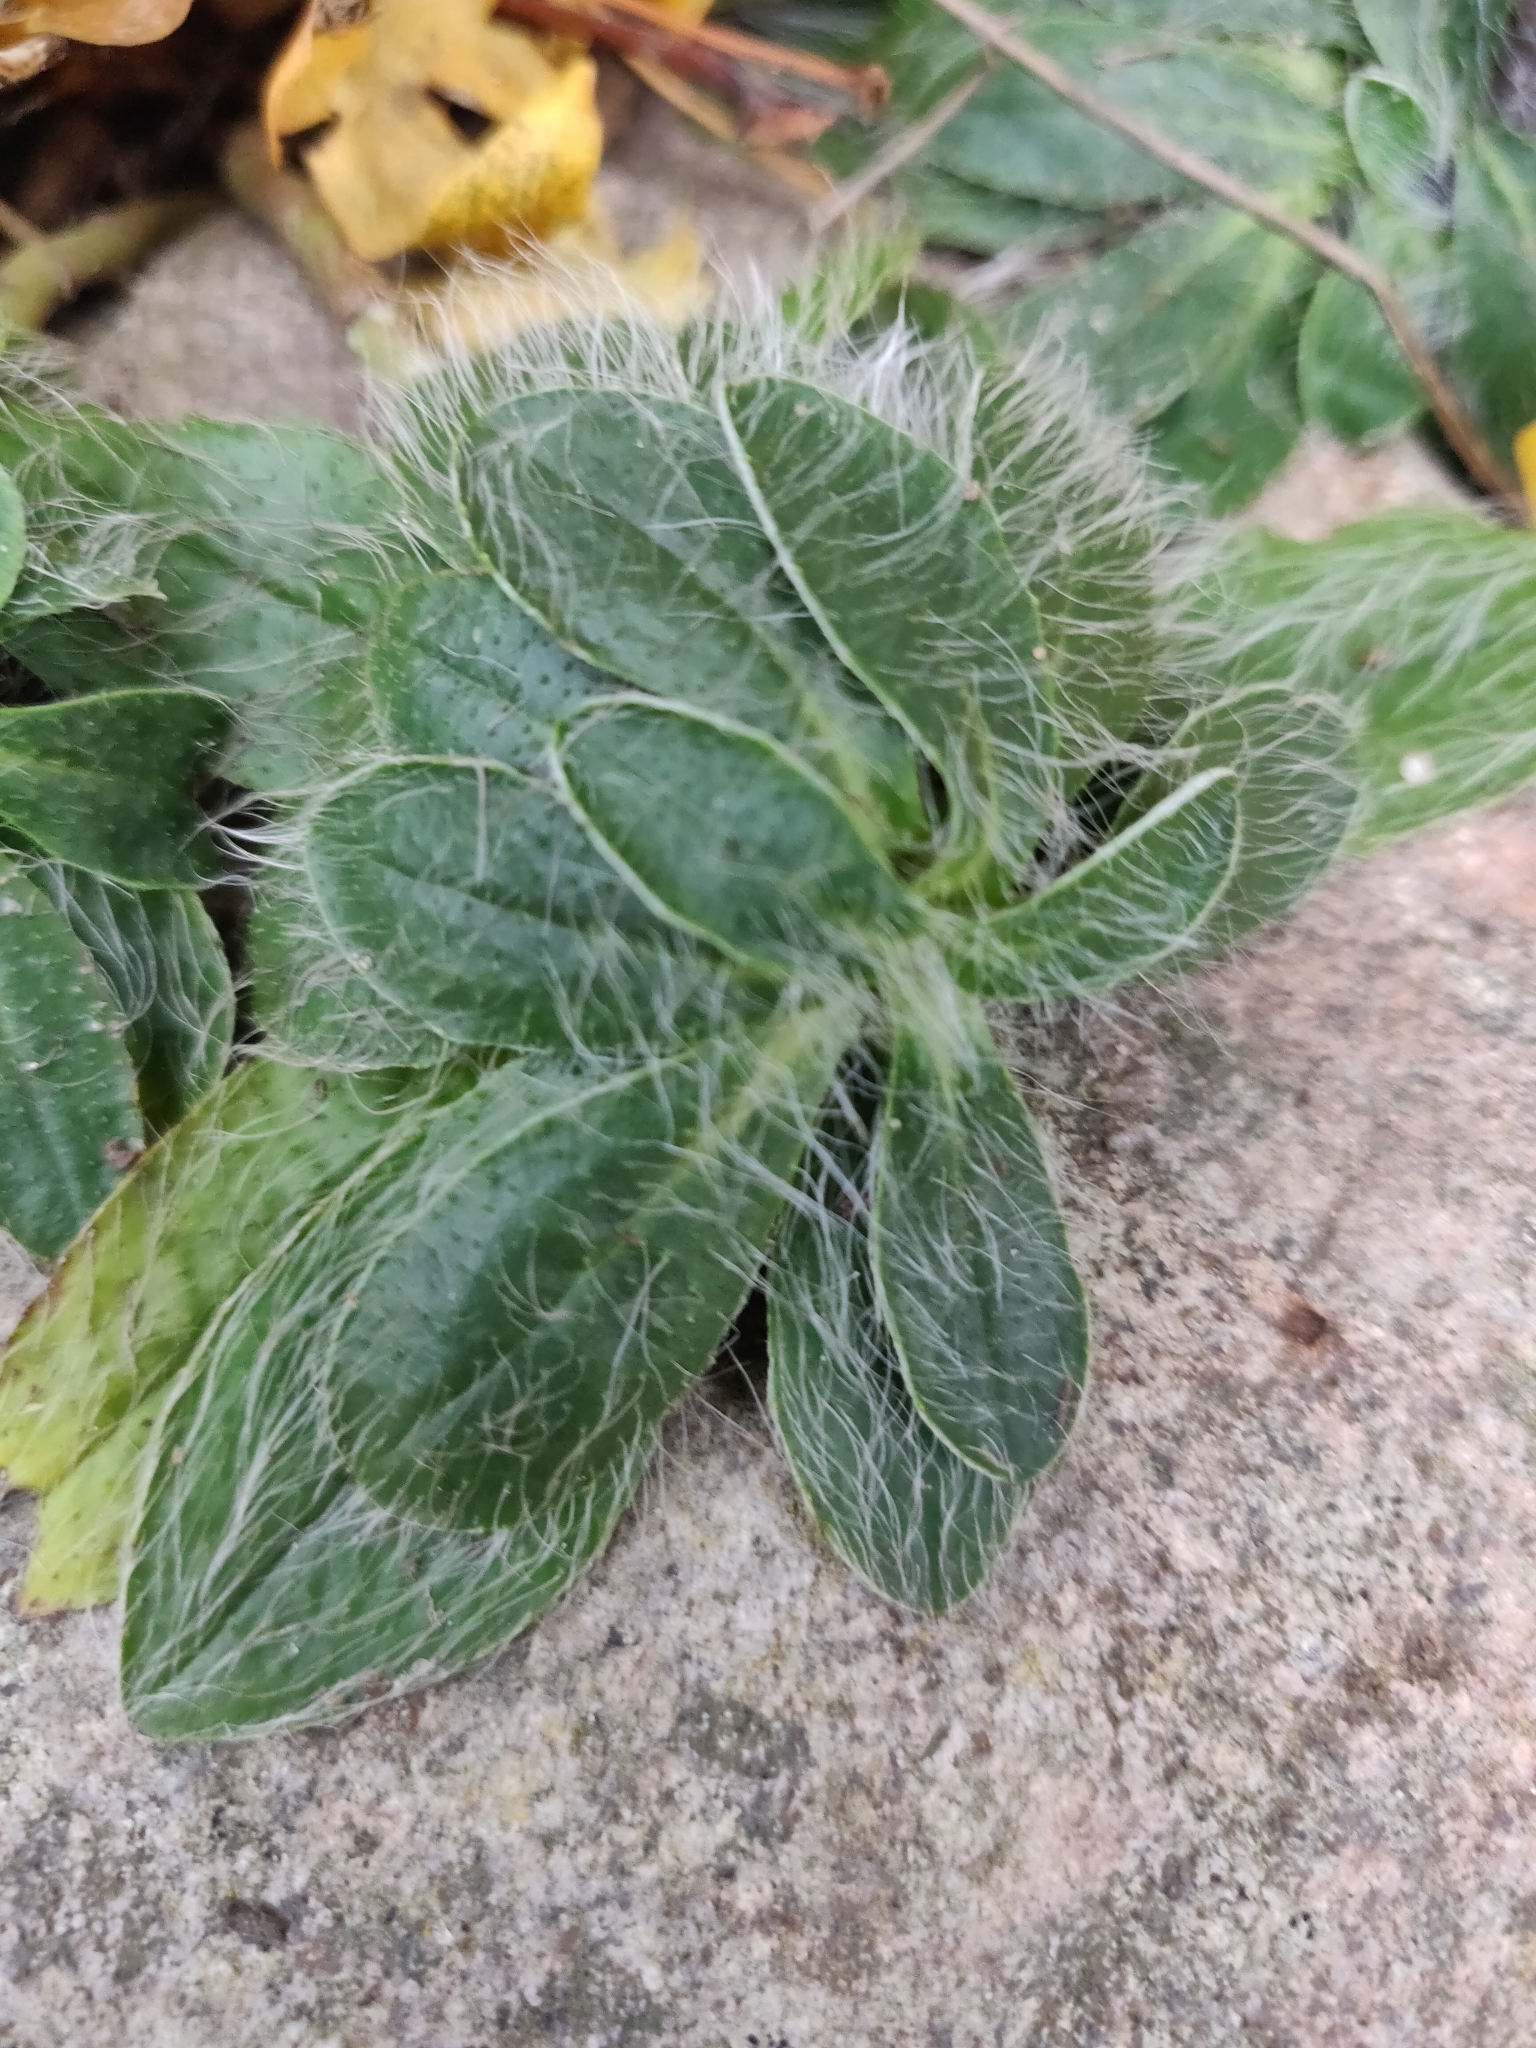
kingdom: Plantae
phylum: Tracheophyta
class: Magnoliopsida
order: Asterales
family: Asteraceae
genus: Pilosella
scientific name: Pilosella officinarum
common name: Mouse-ear hawkweed
